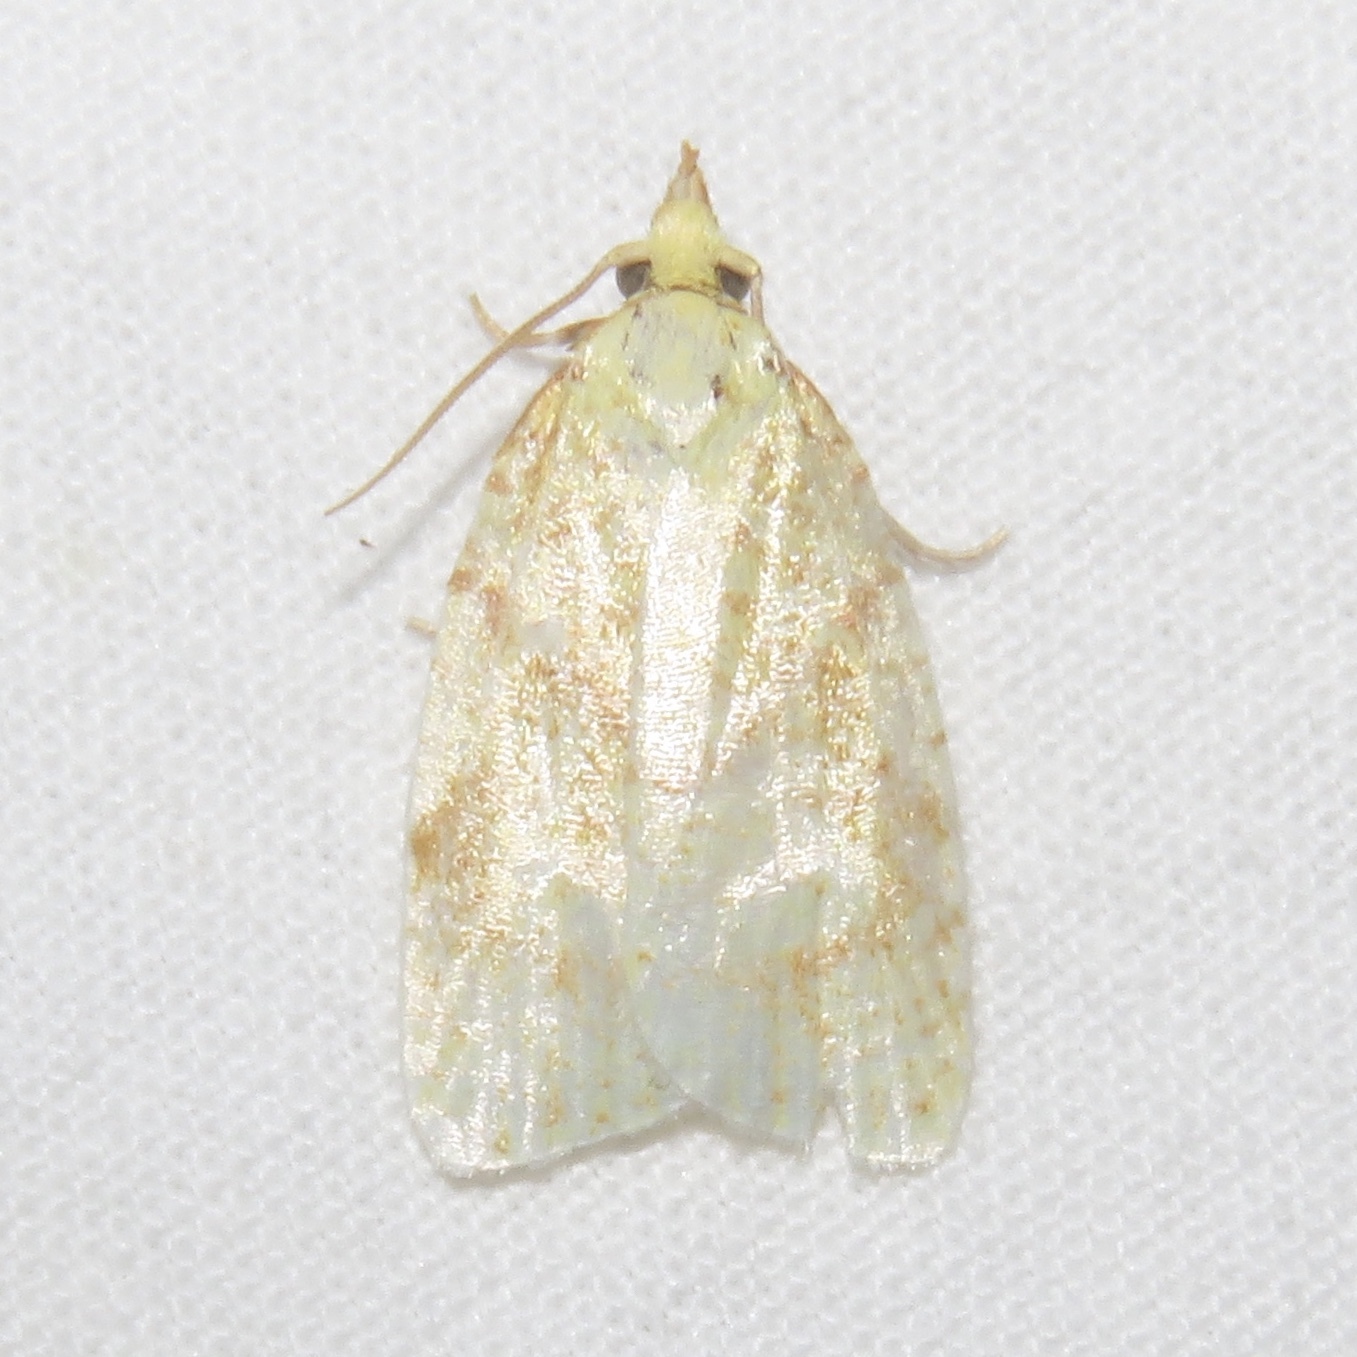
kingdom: Animalia
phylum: Arthropoda
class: Insecta
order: Lepidoptera
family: Tortricidae
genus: Cenopis
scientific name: Cenopis pettitana
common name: Maple-basswood leafroller moth
